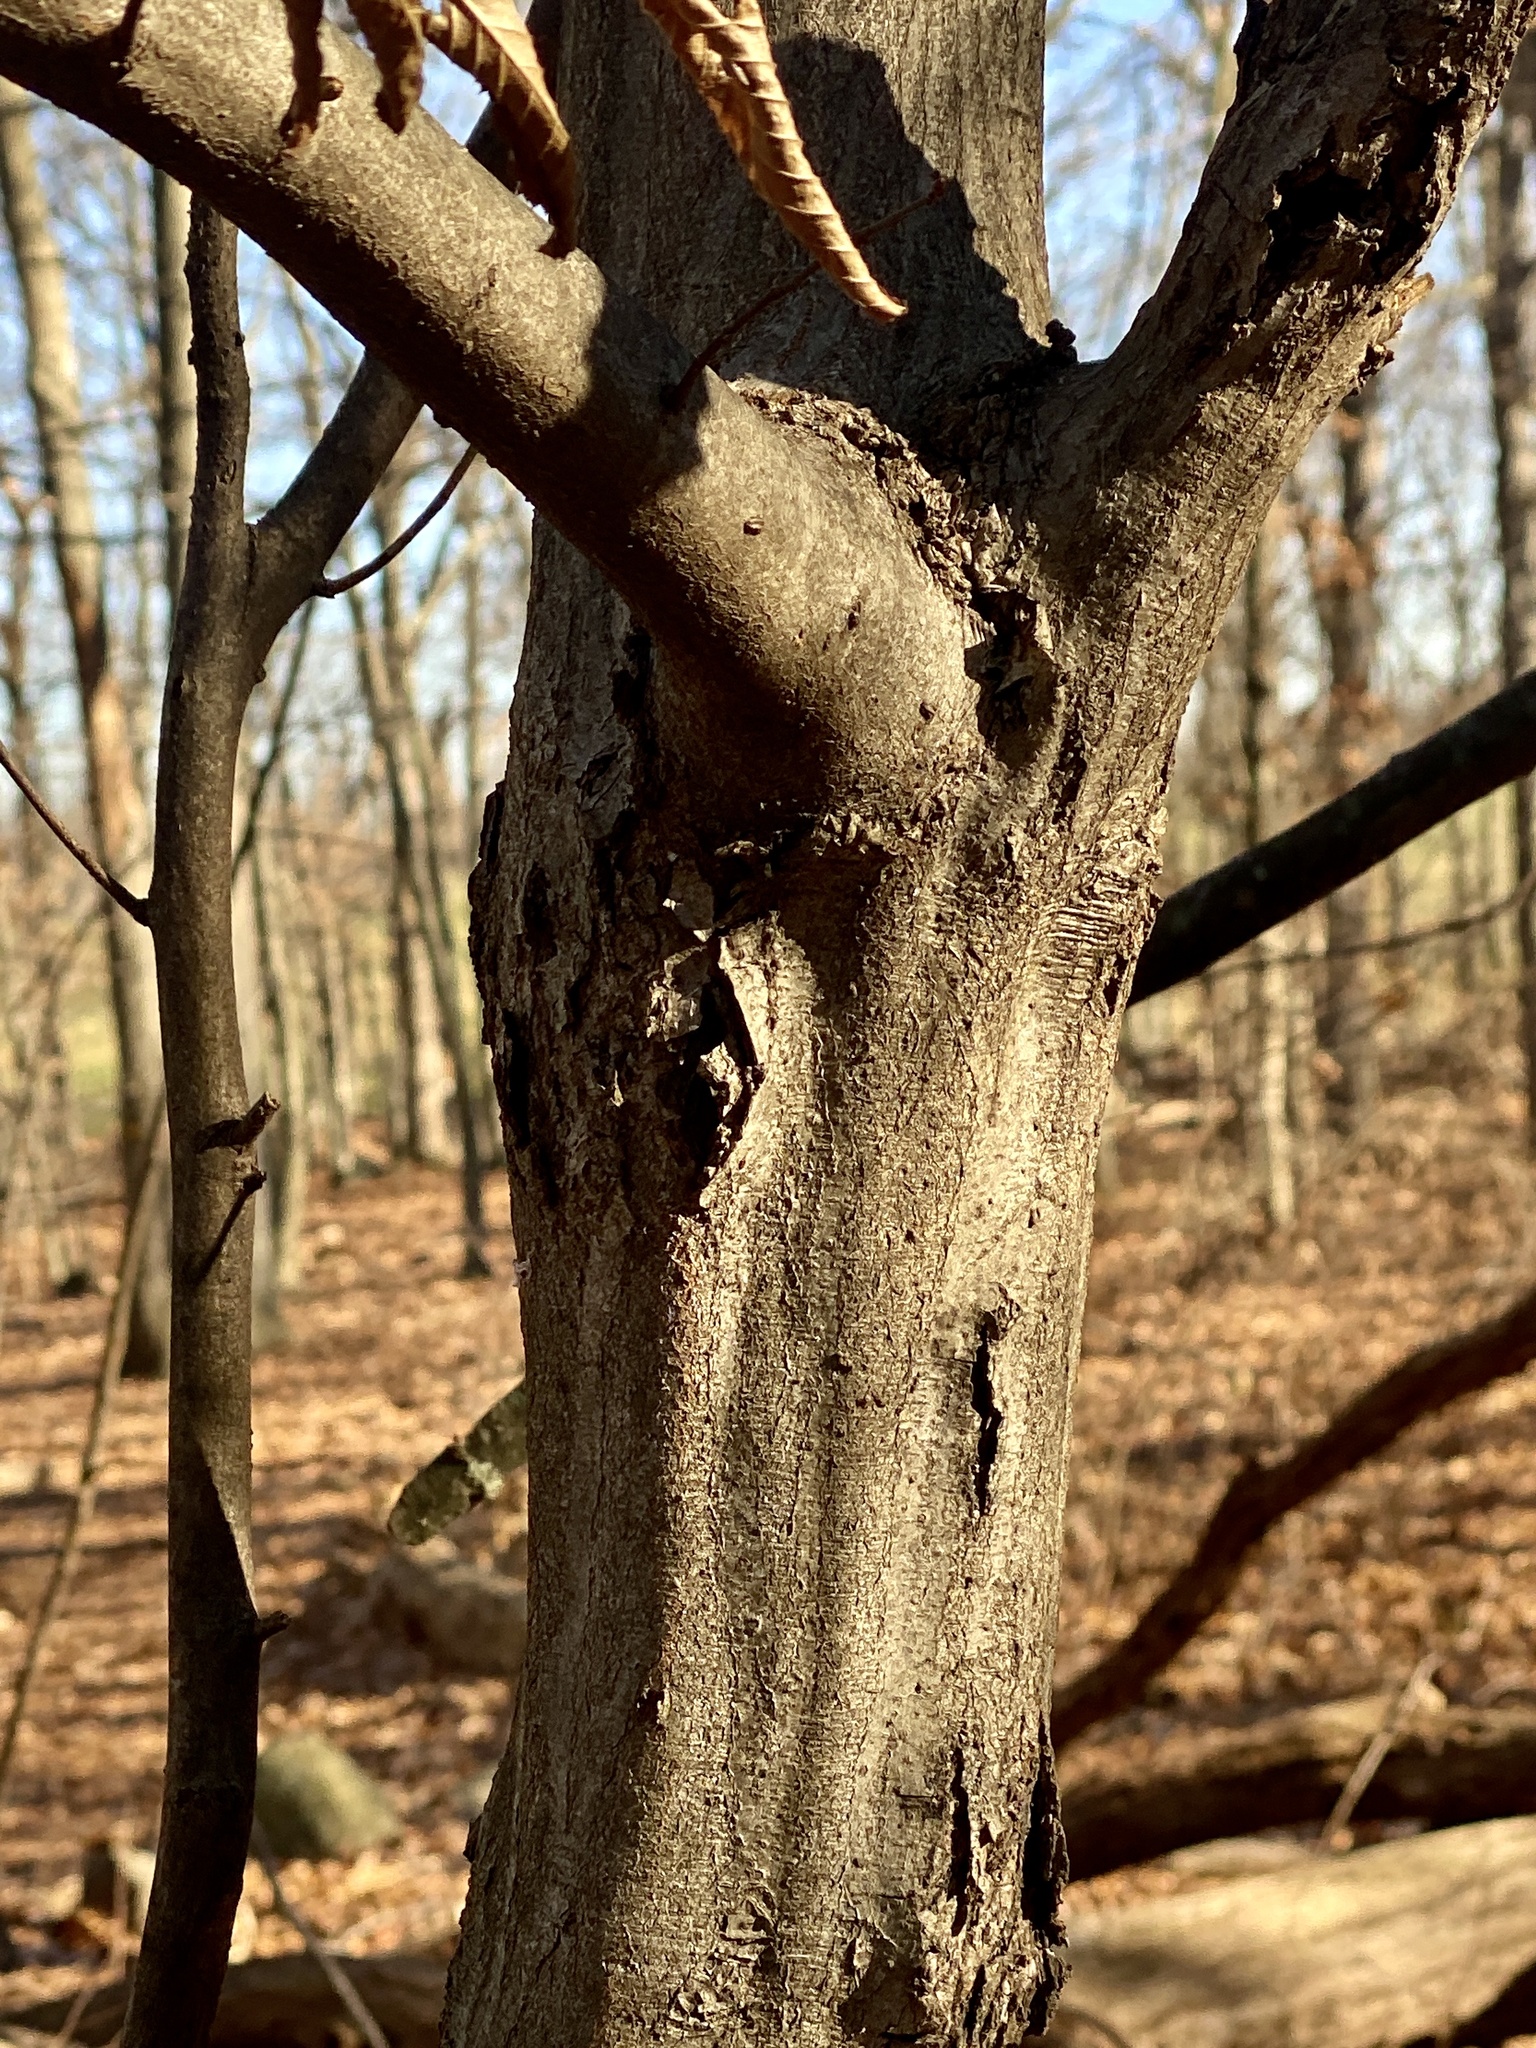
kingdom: Plantae
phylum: Tracheophyta
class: Magnoliopsida
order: Fagales
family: Betulaceae
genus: Carpinus
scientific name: Carpinus caroliniana
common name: American hornbeam
